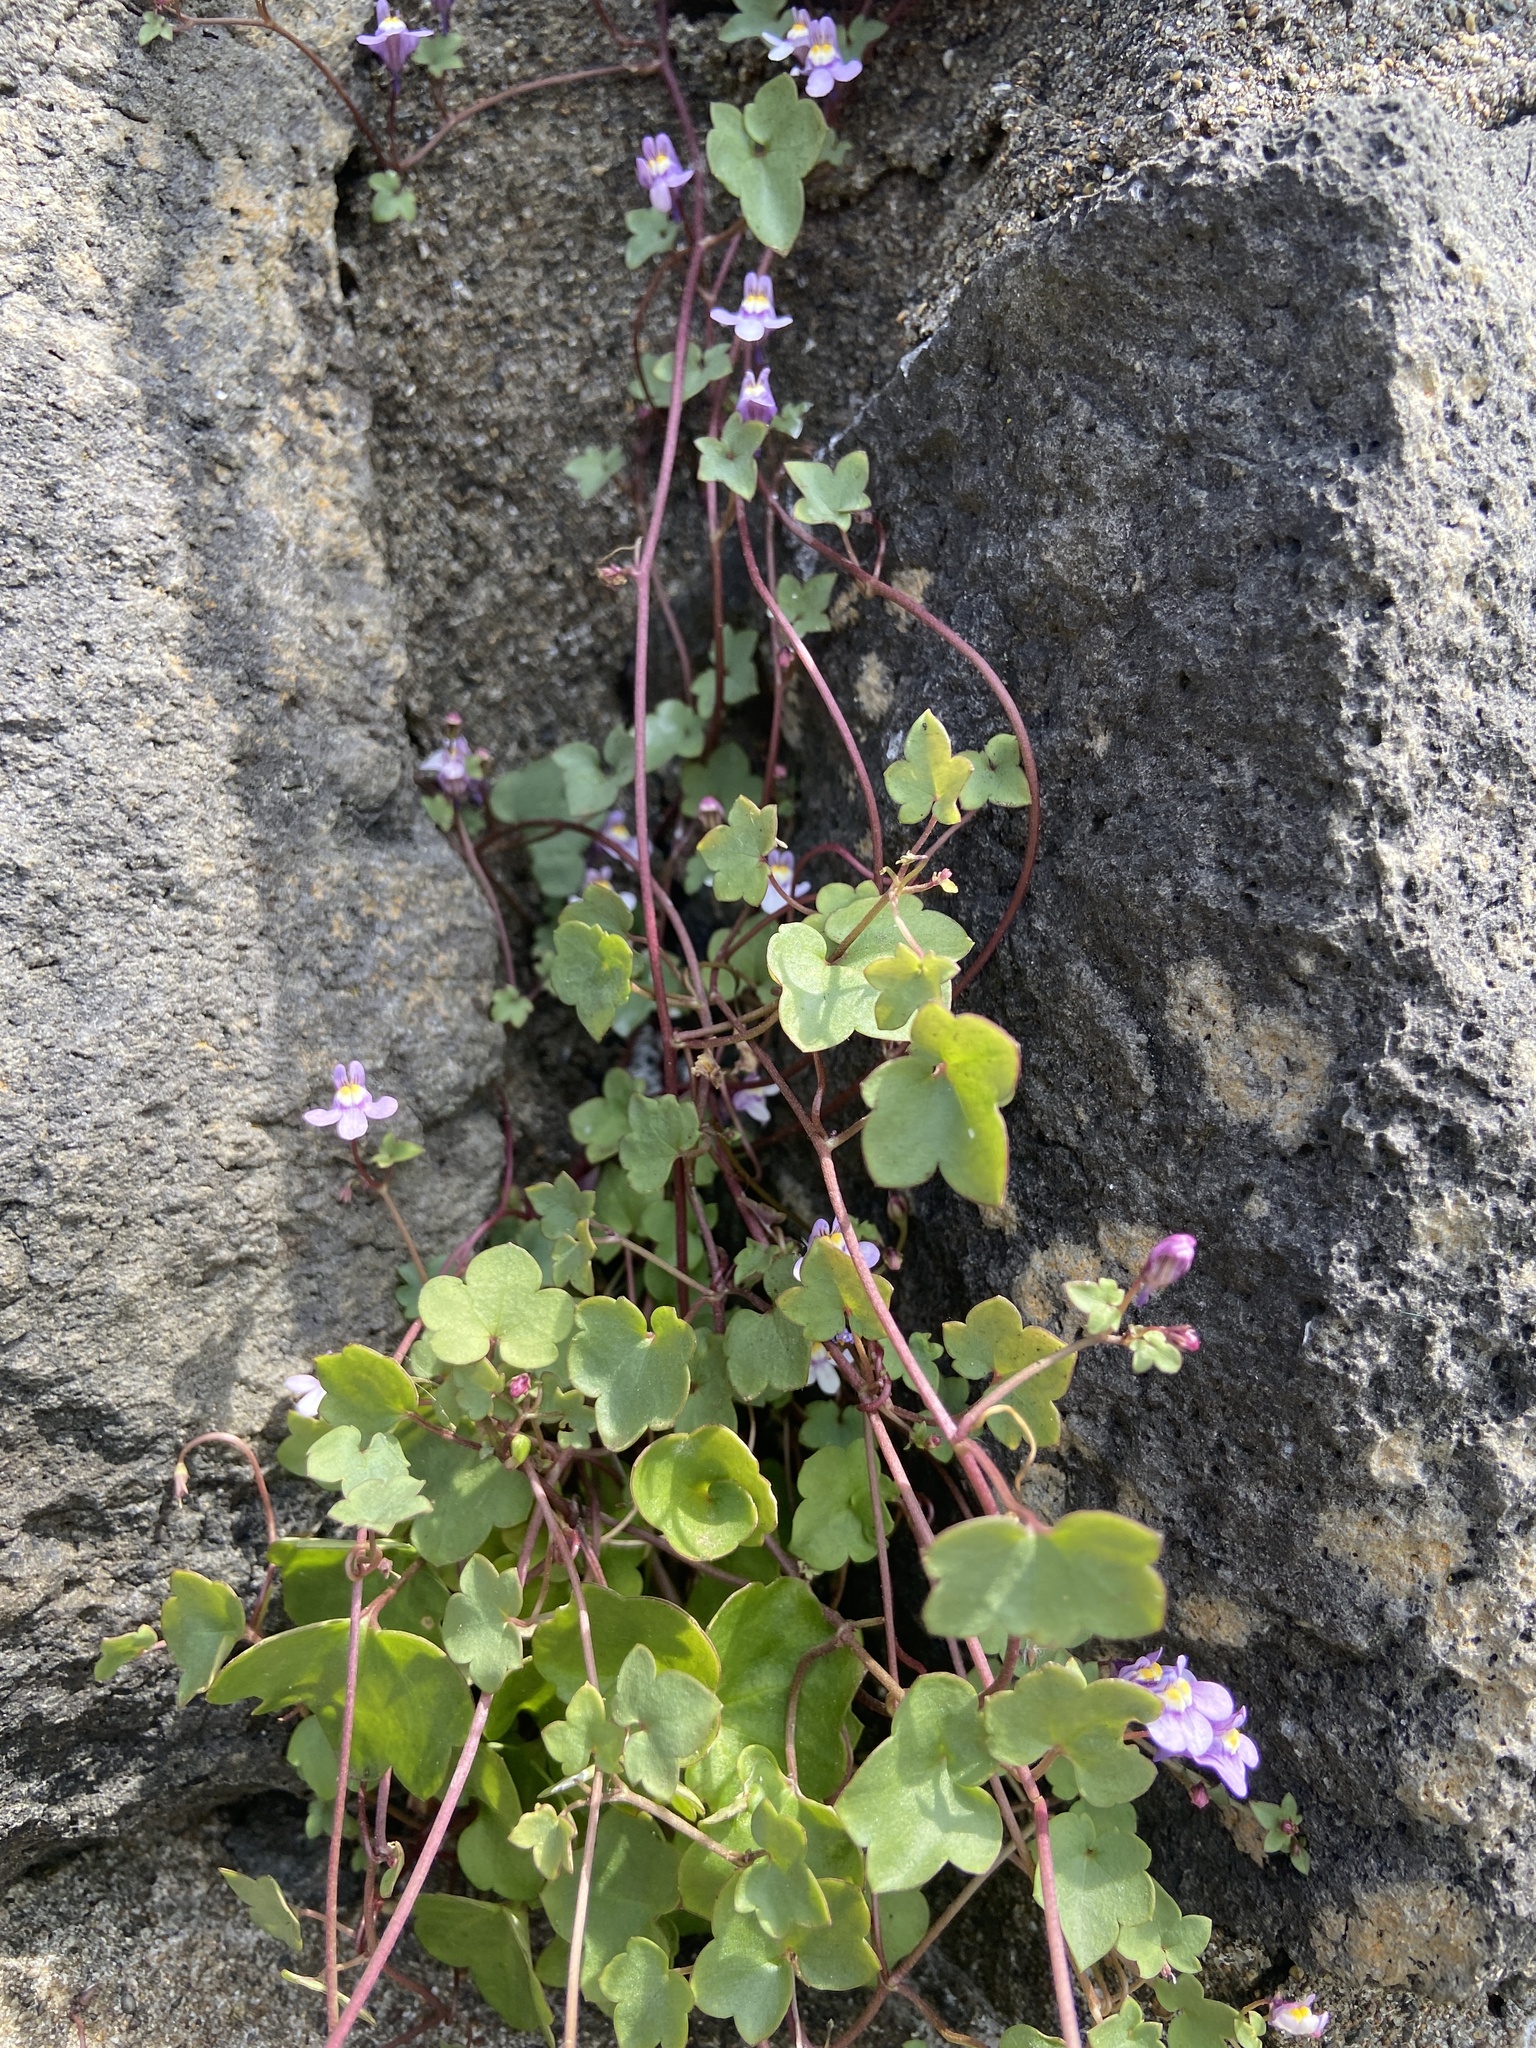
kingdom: Plantae
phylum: Tracheophyta
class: Magnoliopsida
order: Lamiales
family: Plantaginaceae
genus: Cymbalaria
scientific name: Cymbalaria muralis
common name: Ivy-leaved toadflax
